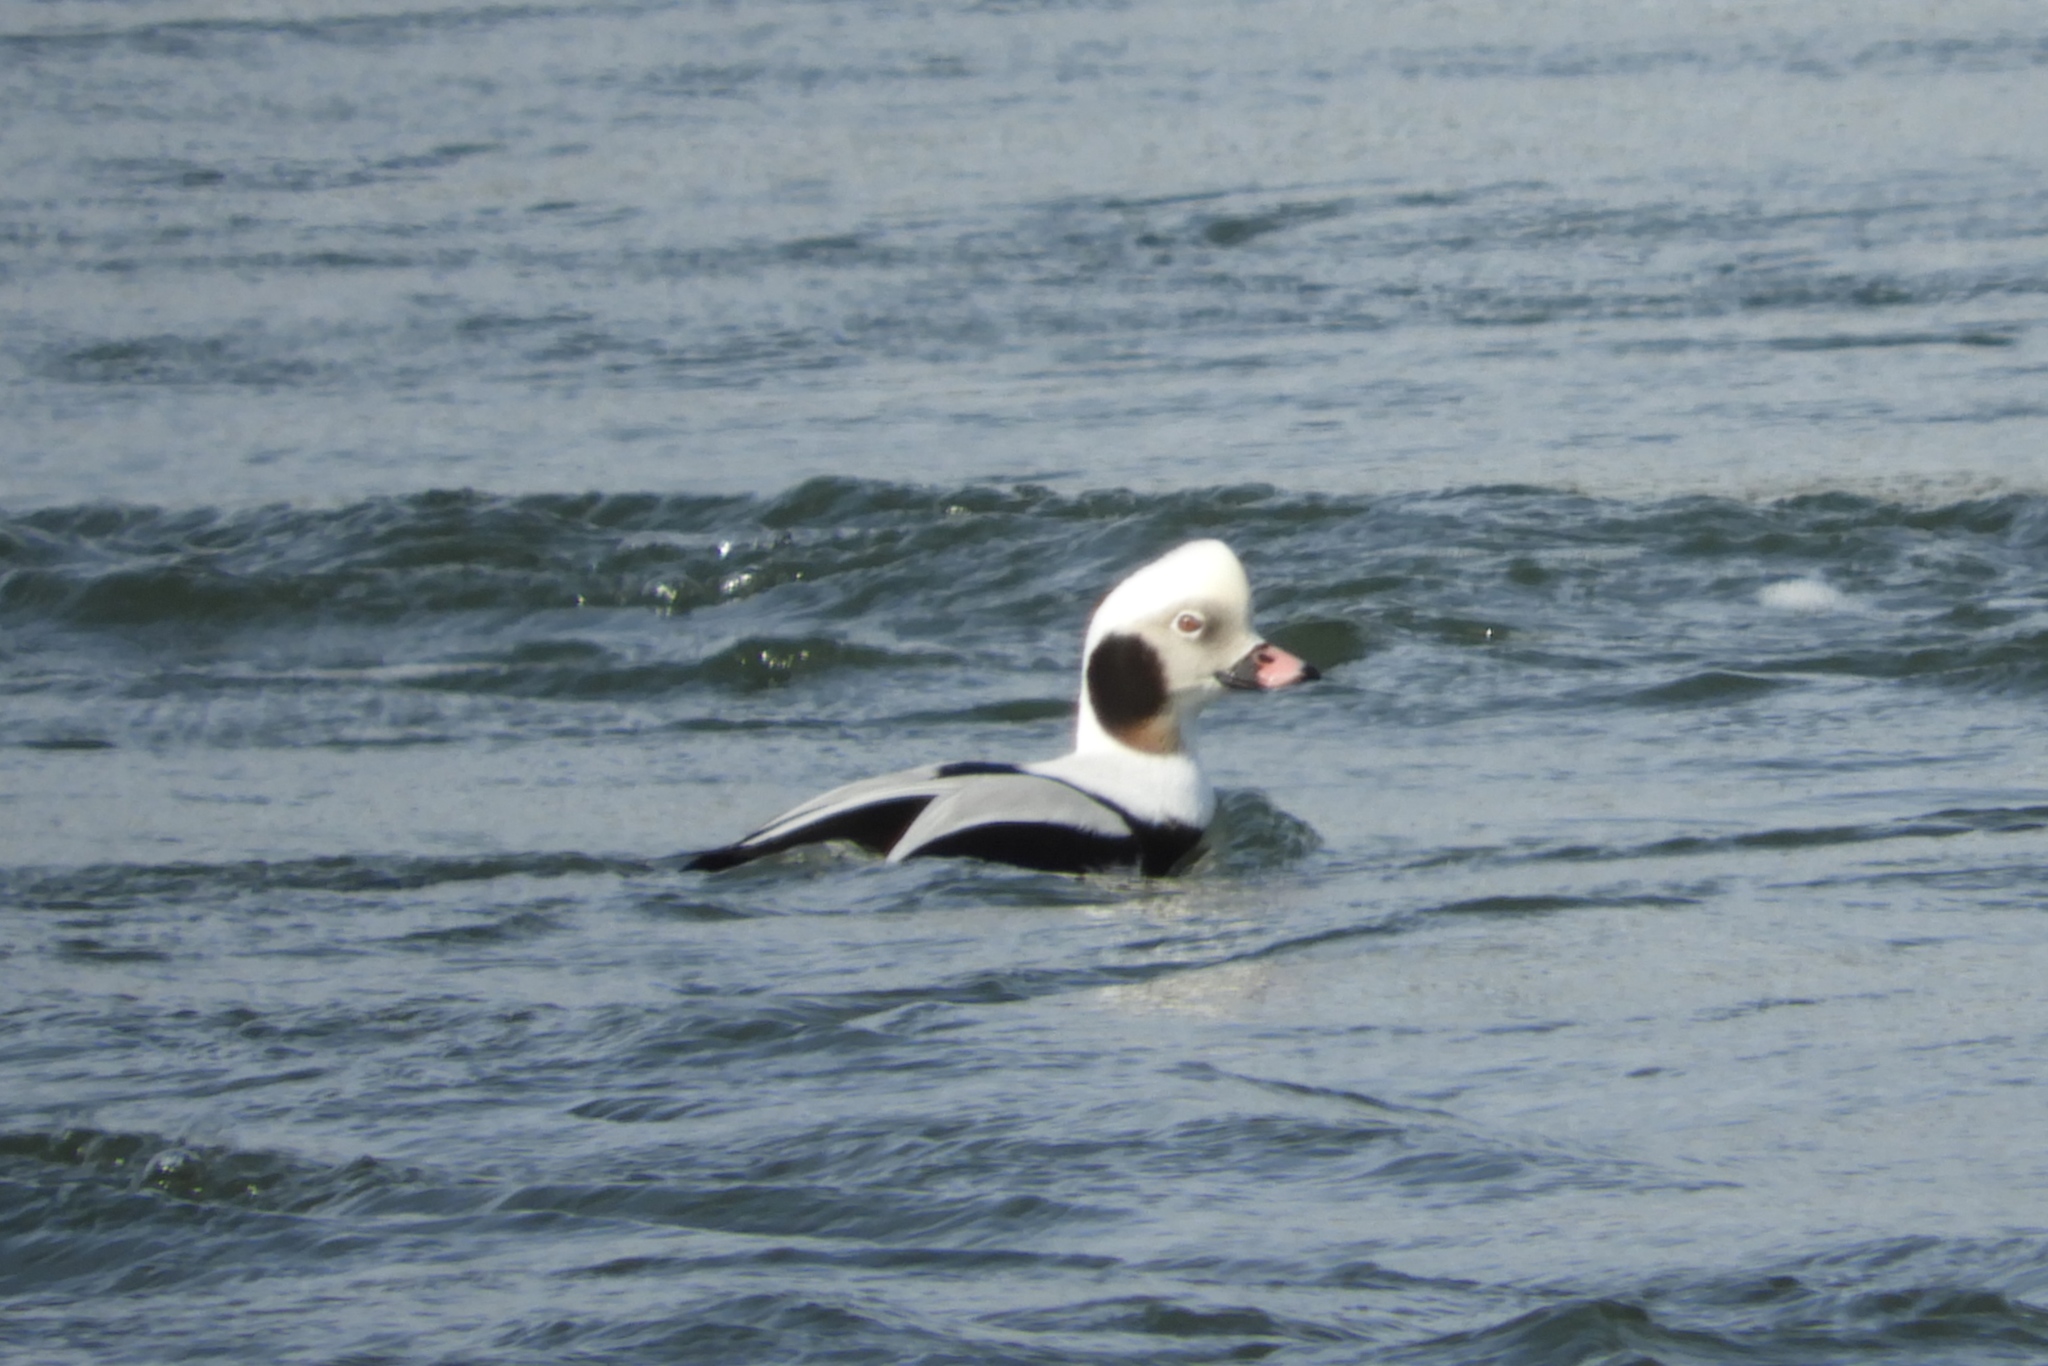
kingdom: Animalia
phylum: Chordata
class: Aves
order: Anseriformes
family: Anatidae
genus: Clangula
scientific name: Clangula hyemalis
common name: Long-tailed duck
